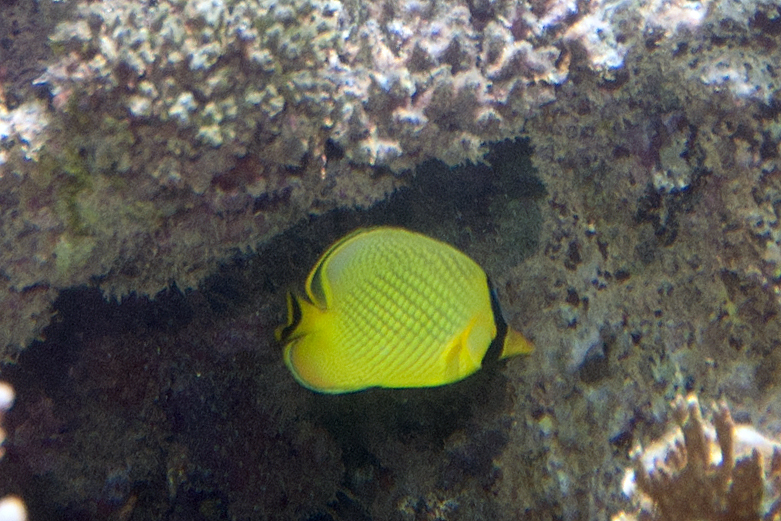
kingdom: Animalia
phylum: Chordata
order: Perciformes
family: Chaetodontidae
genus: Chaetodon
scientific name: Chaetodon rafflesii
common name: Latticed butterflyfish
